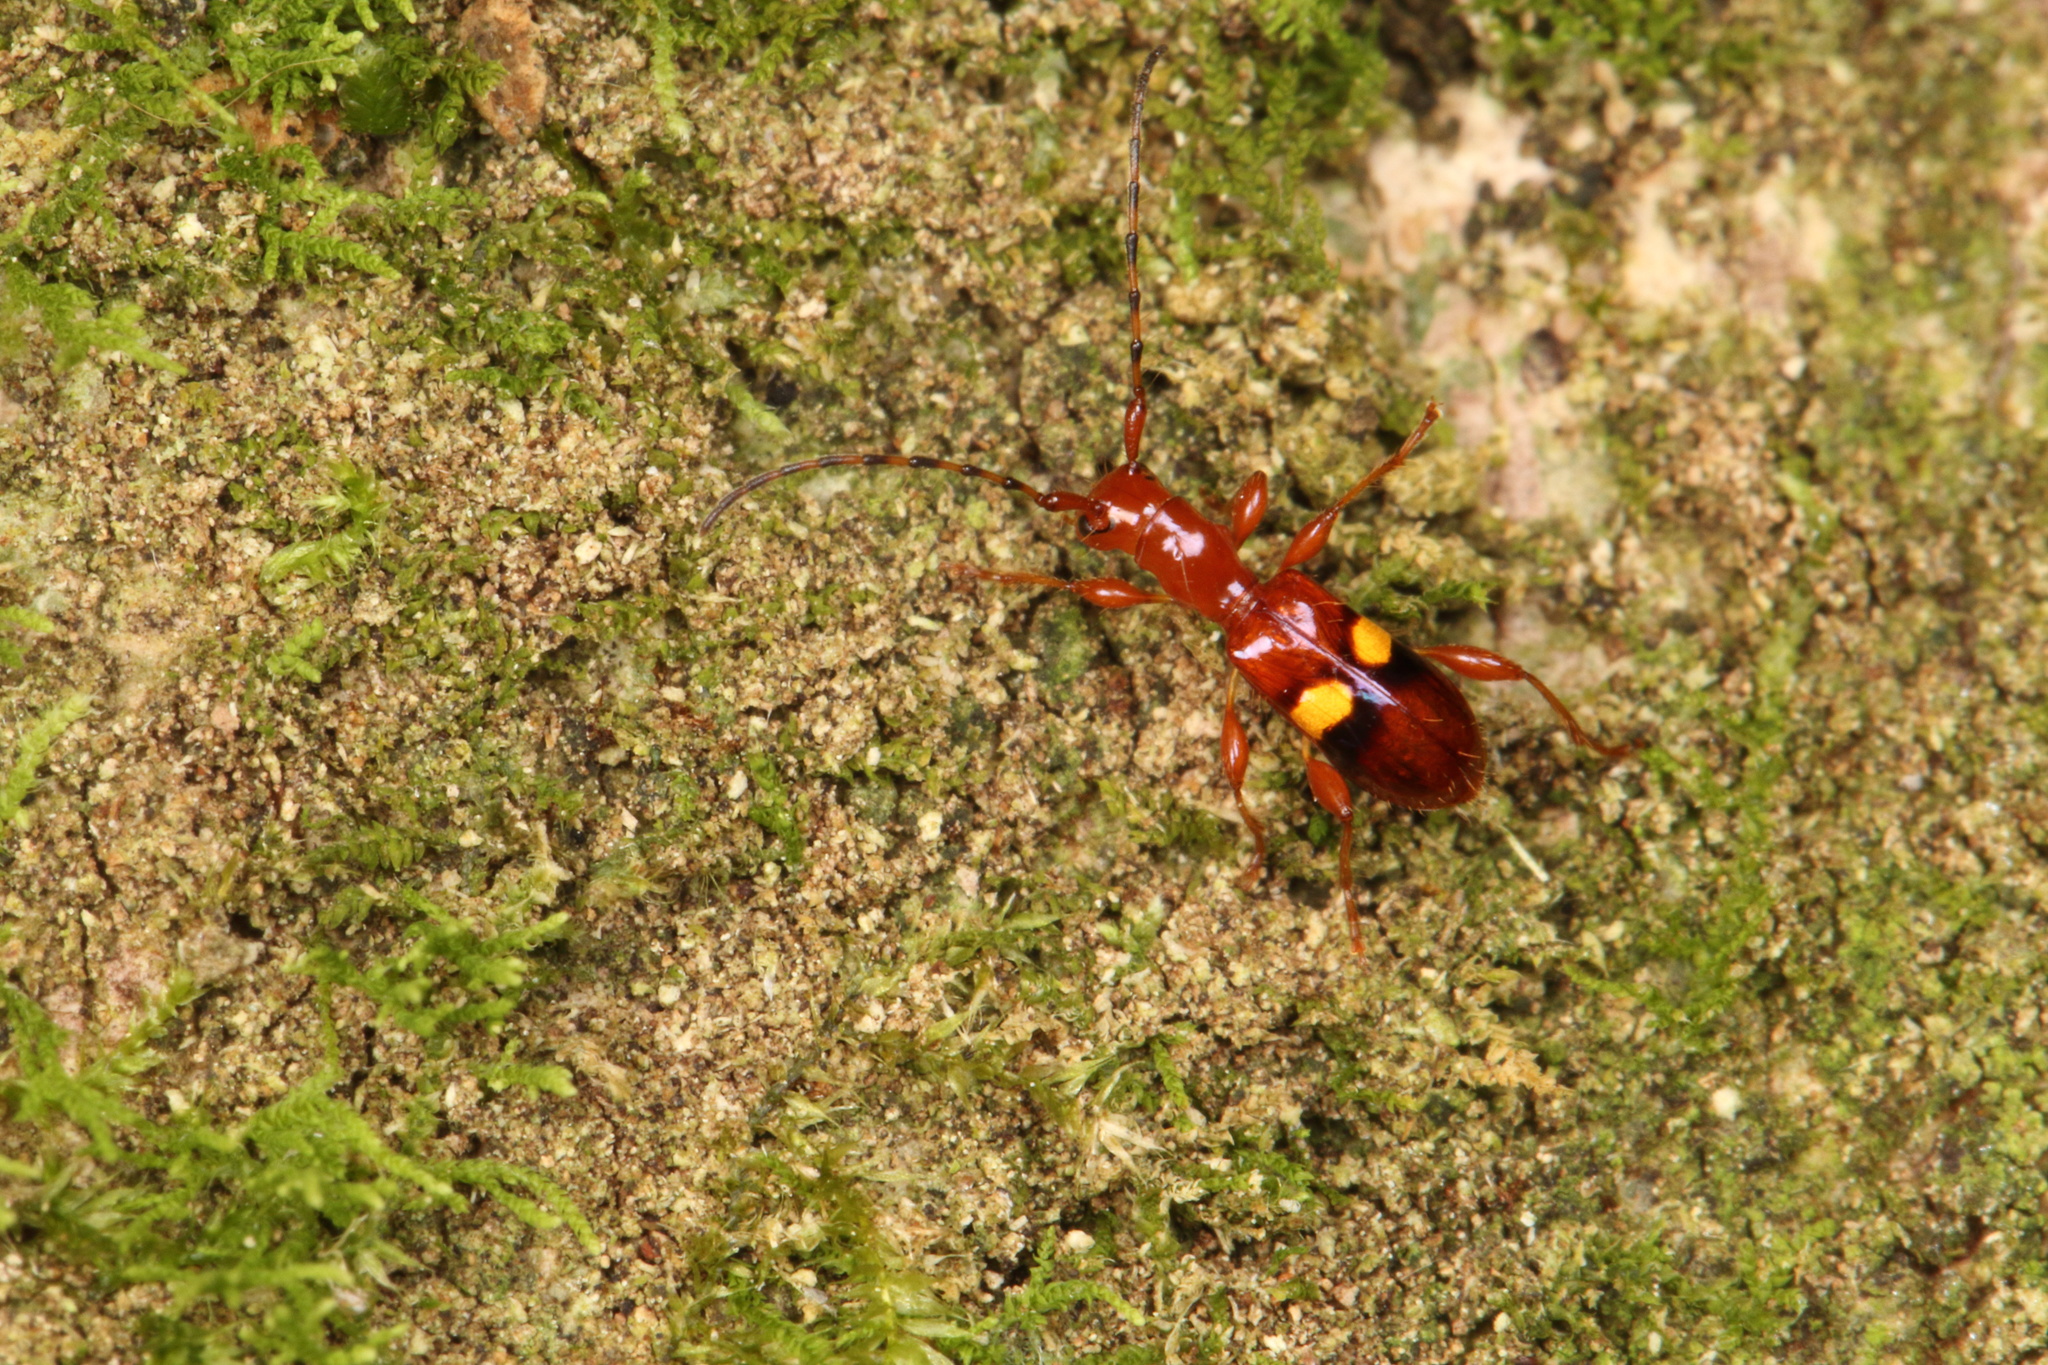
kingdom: Animalia
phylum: Arthropoda
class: Insecta
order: Coleoptera
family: Cerambycidae
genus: Zorion
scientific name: Zorion australe
